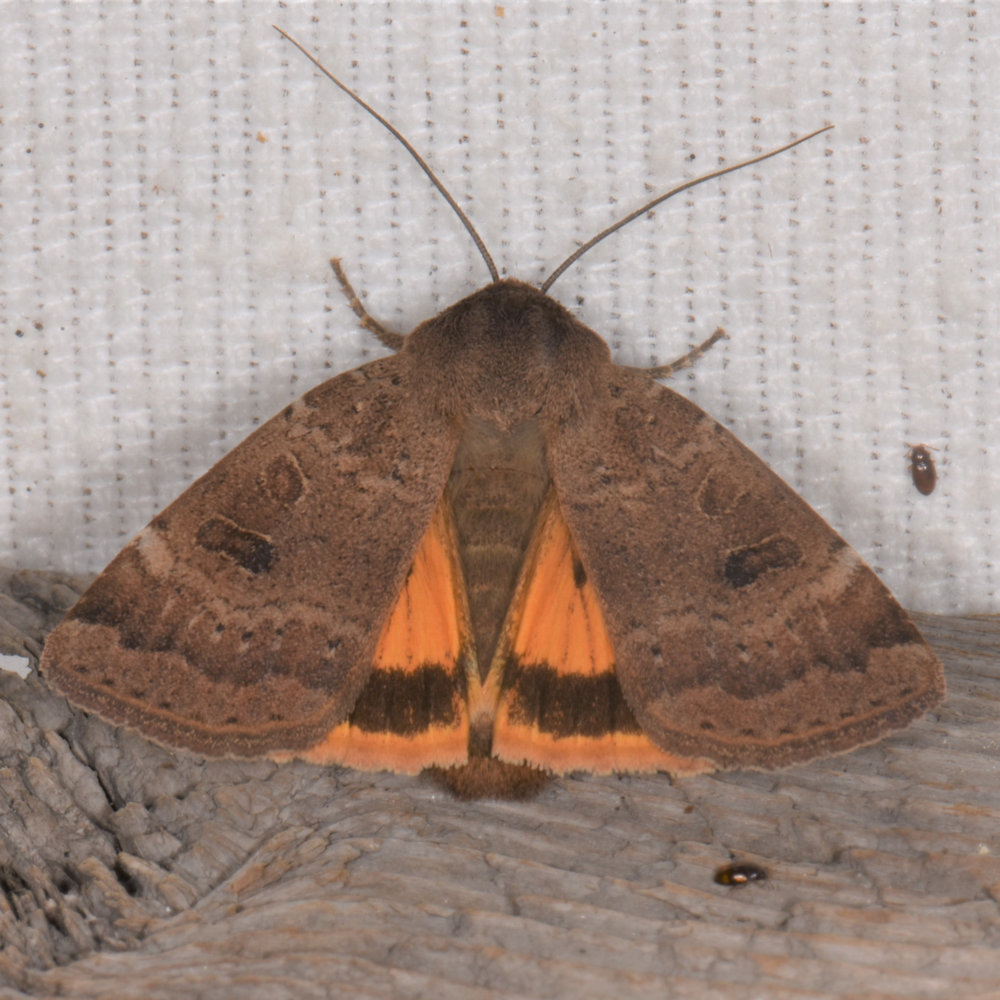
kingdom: Animalia
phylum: Arthropoda
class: Insecta
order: Lepidoptera
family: Noctuidae
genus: Noctua
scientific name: Noctua comes
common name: Lesser yellow underwing
